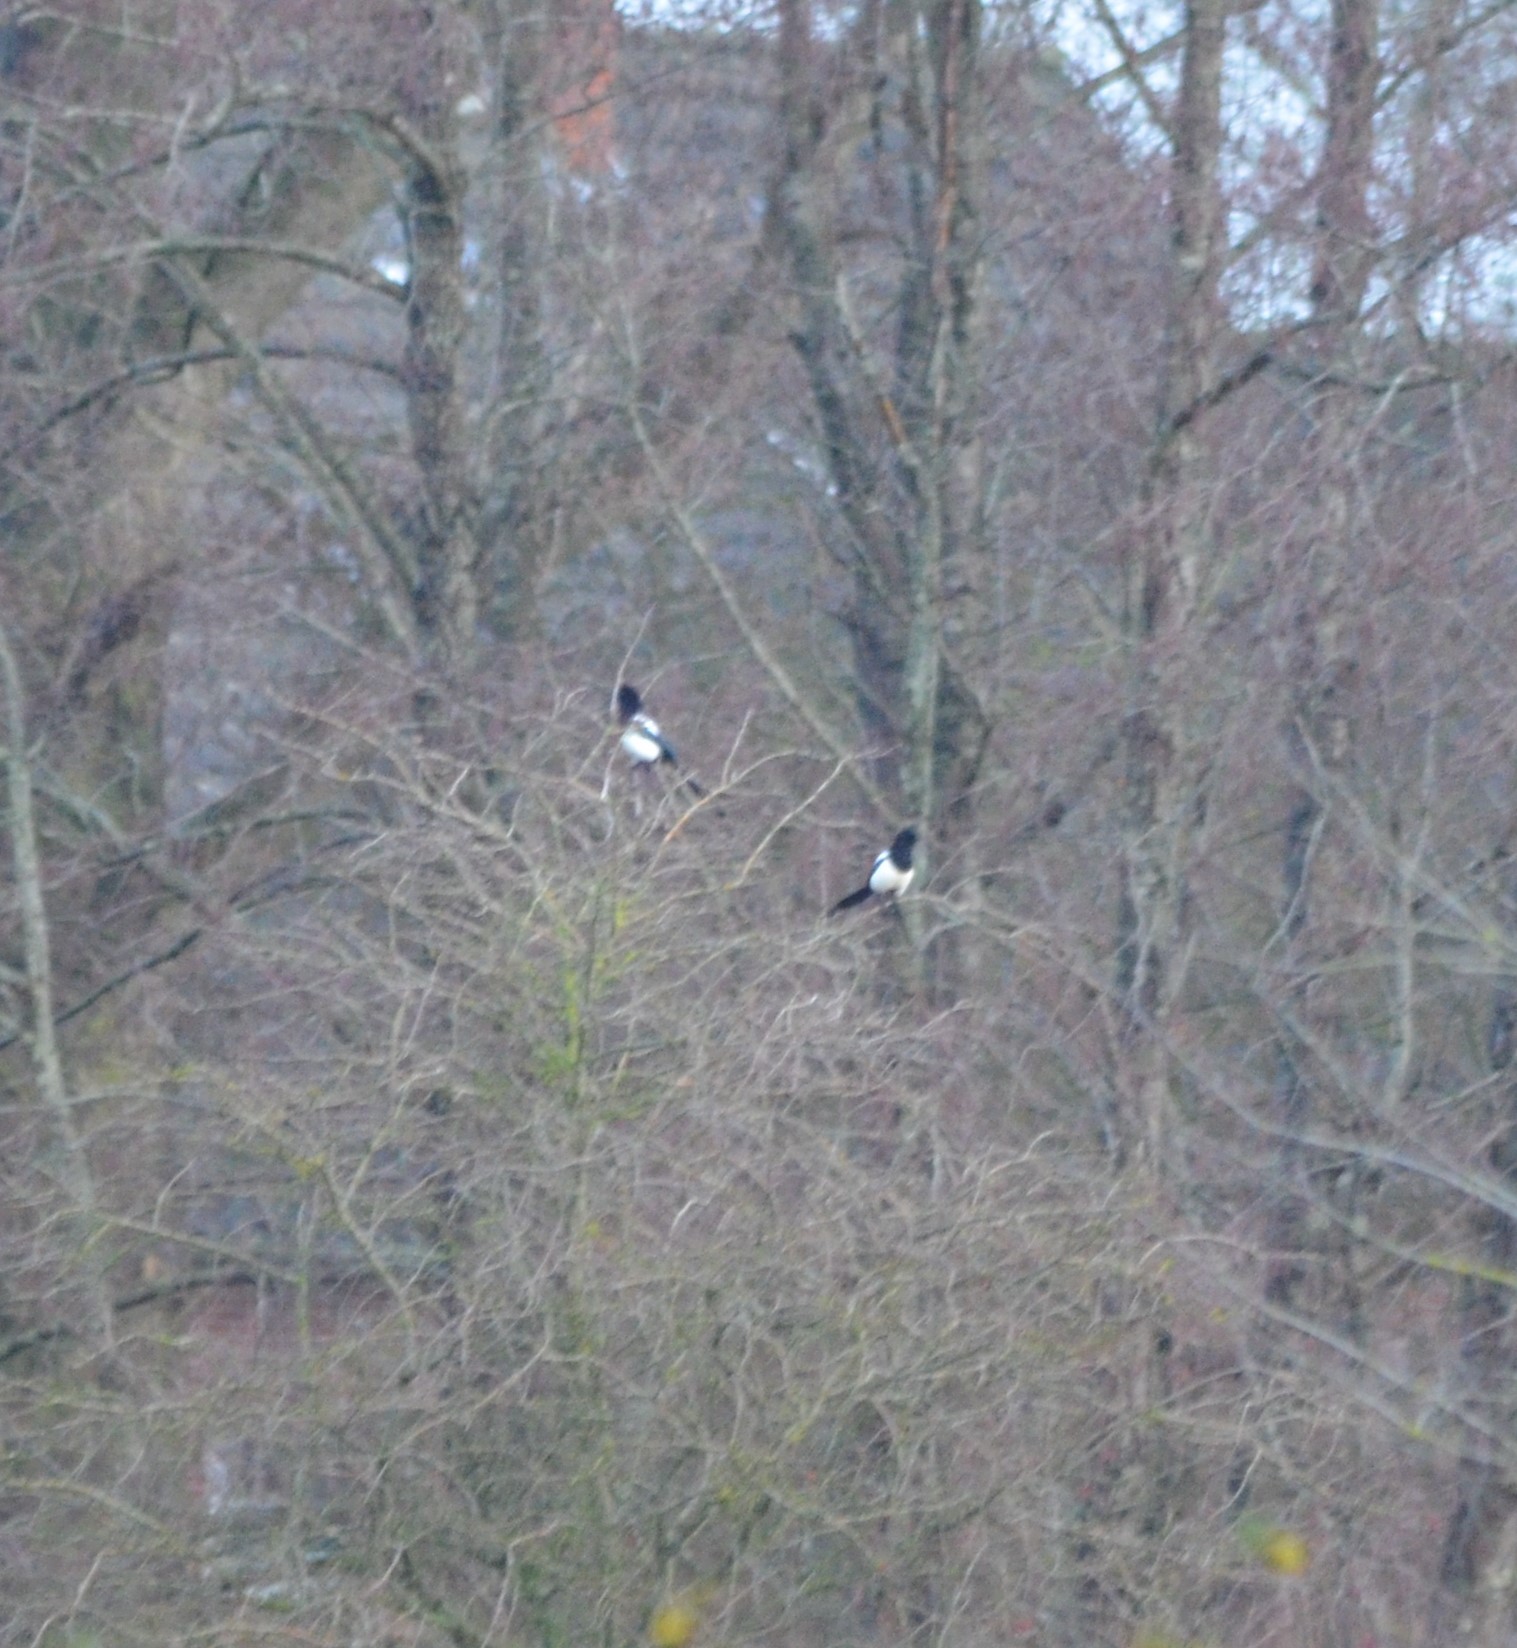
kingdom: Animalia
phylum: Chordata
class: Aves
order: Passeriformes
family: Corvidae
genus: Pica
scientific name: Pica pica
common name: Eurasian magpie
